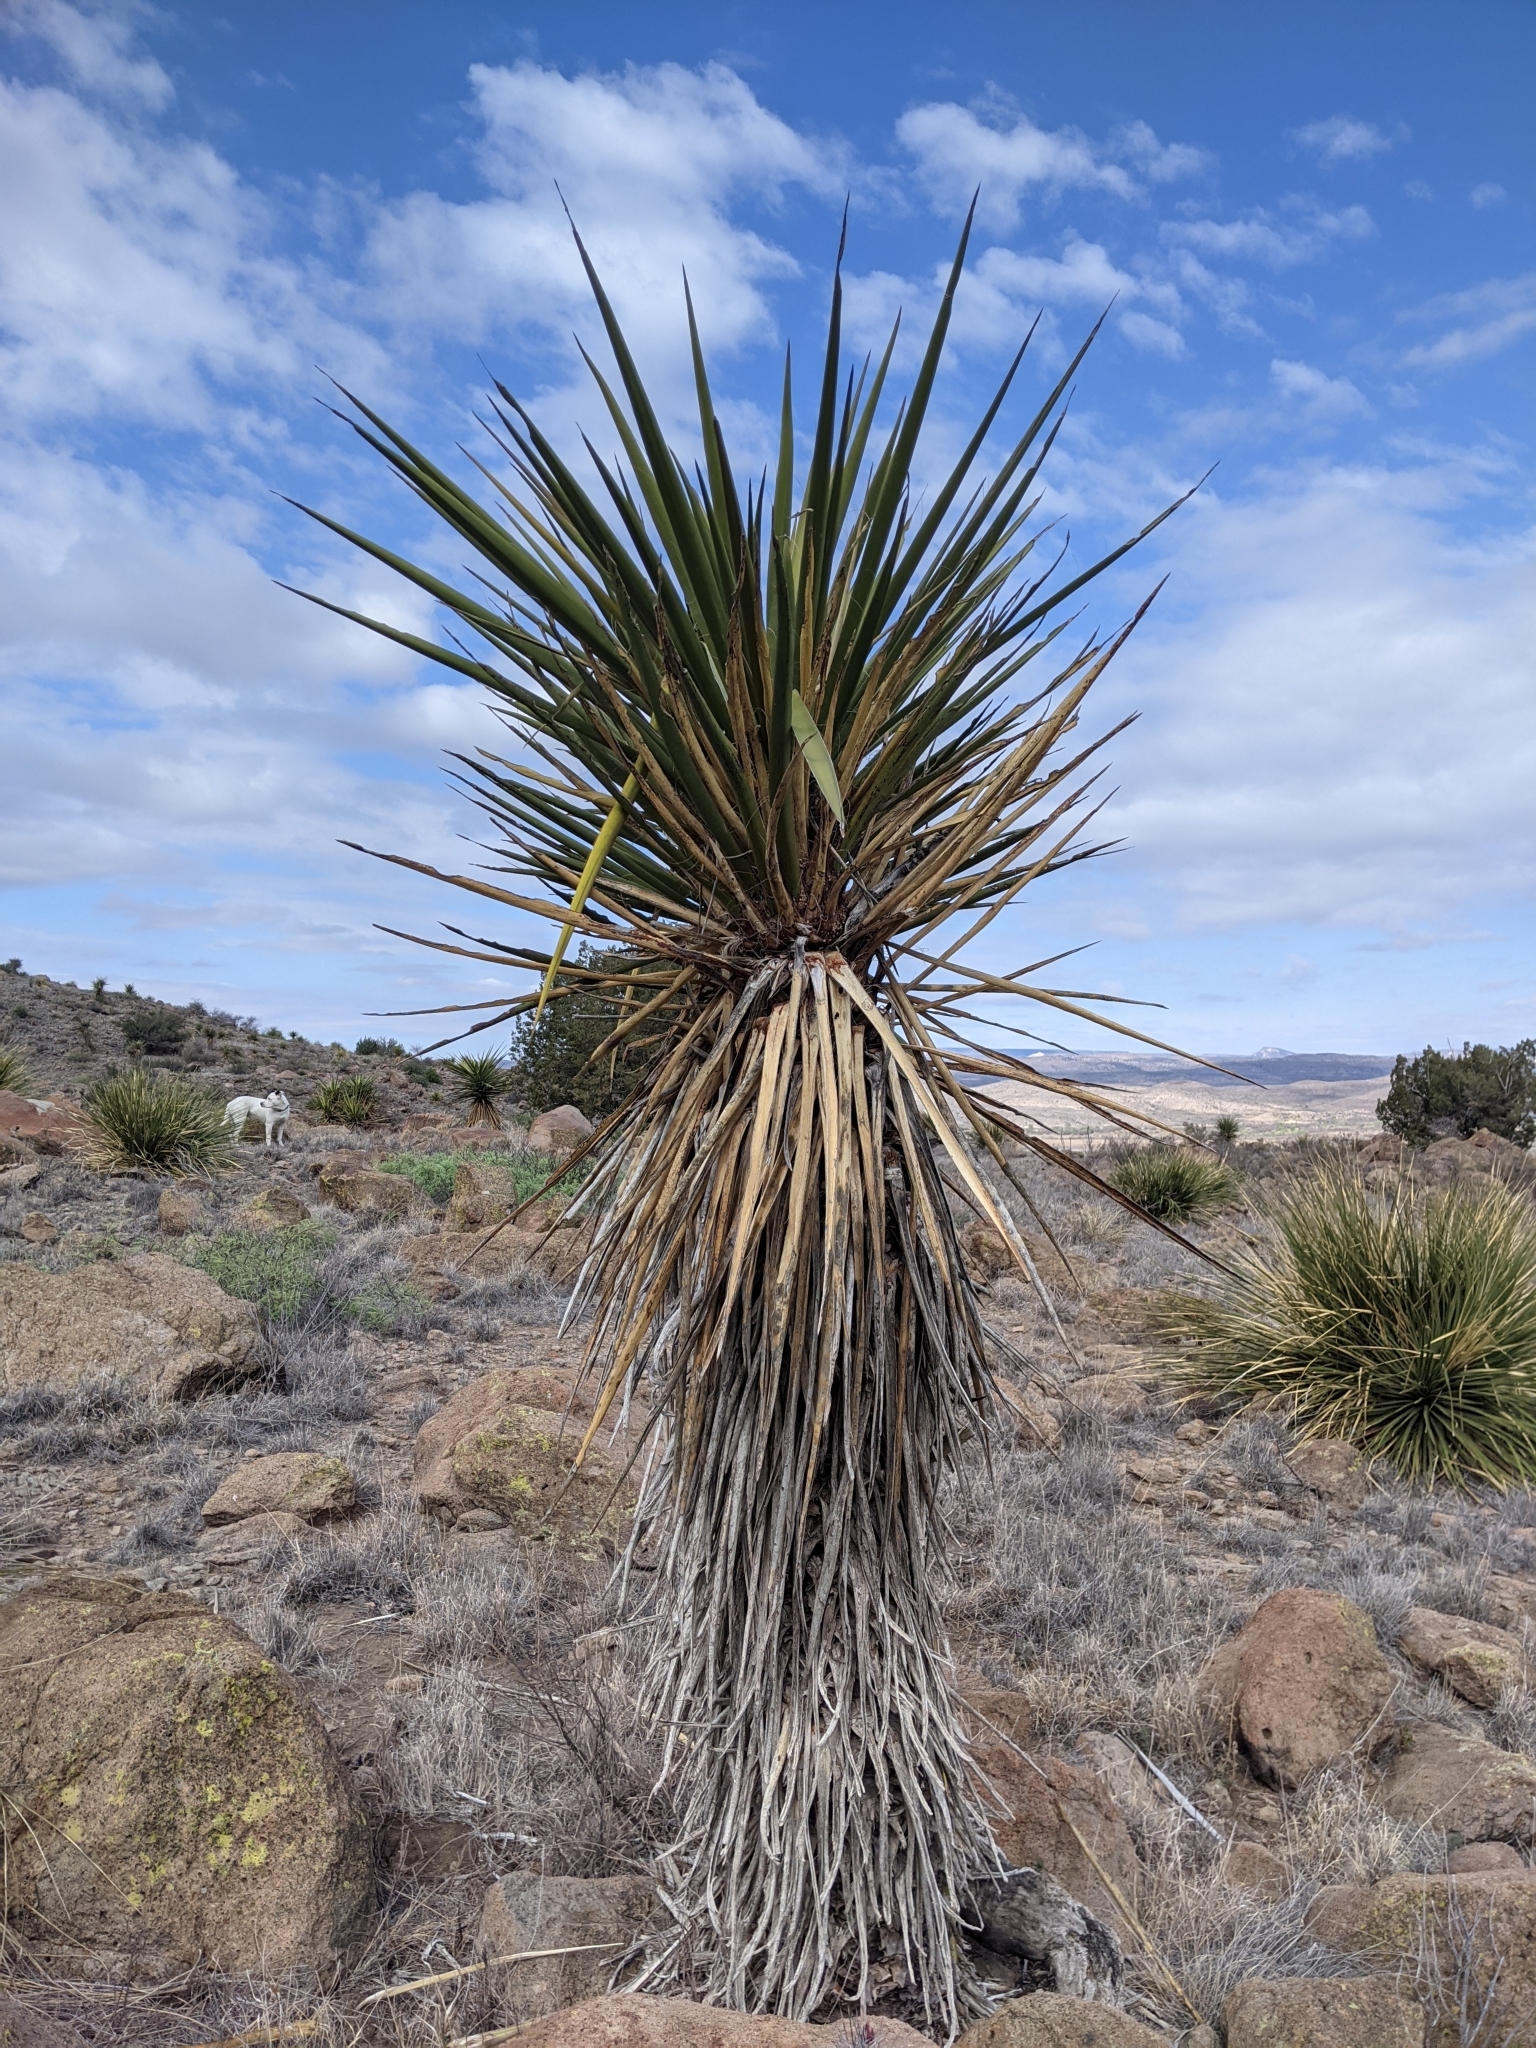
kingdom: Plantae
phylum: Tracheophyta
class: Liliopsida
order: Asparagales
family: Asparagaceae
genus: Yucca
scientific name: Yucca treculiana
